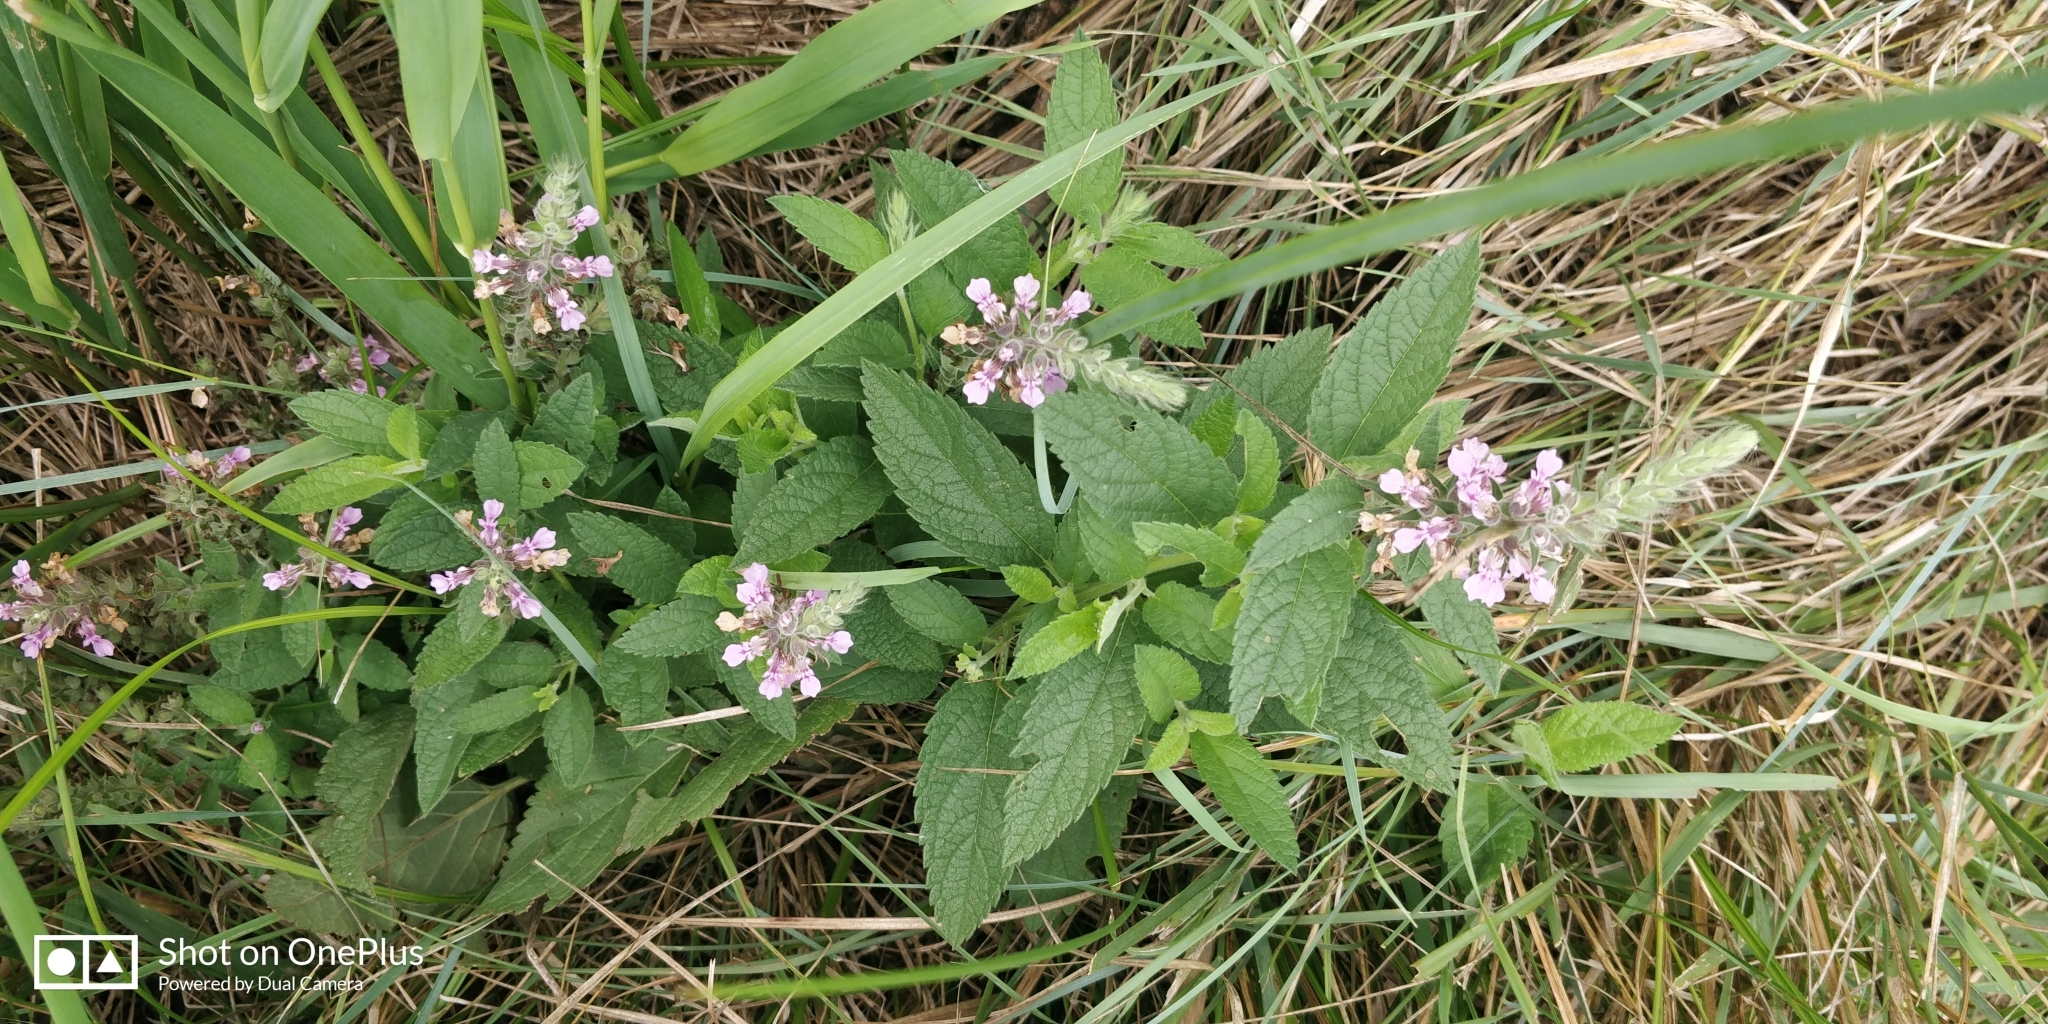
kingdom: Plantae
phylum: Tracheophyta
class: Magnoliopsida
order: Lamiales
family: Lamiaceae
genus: Teucrium
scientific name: Teucrium canadense
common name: American germander
